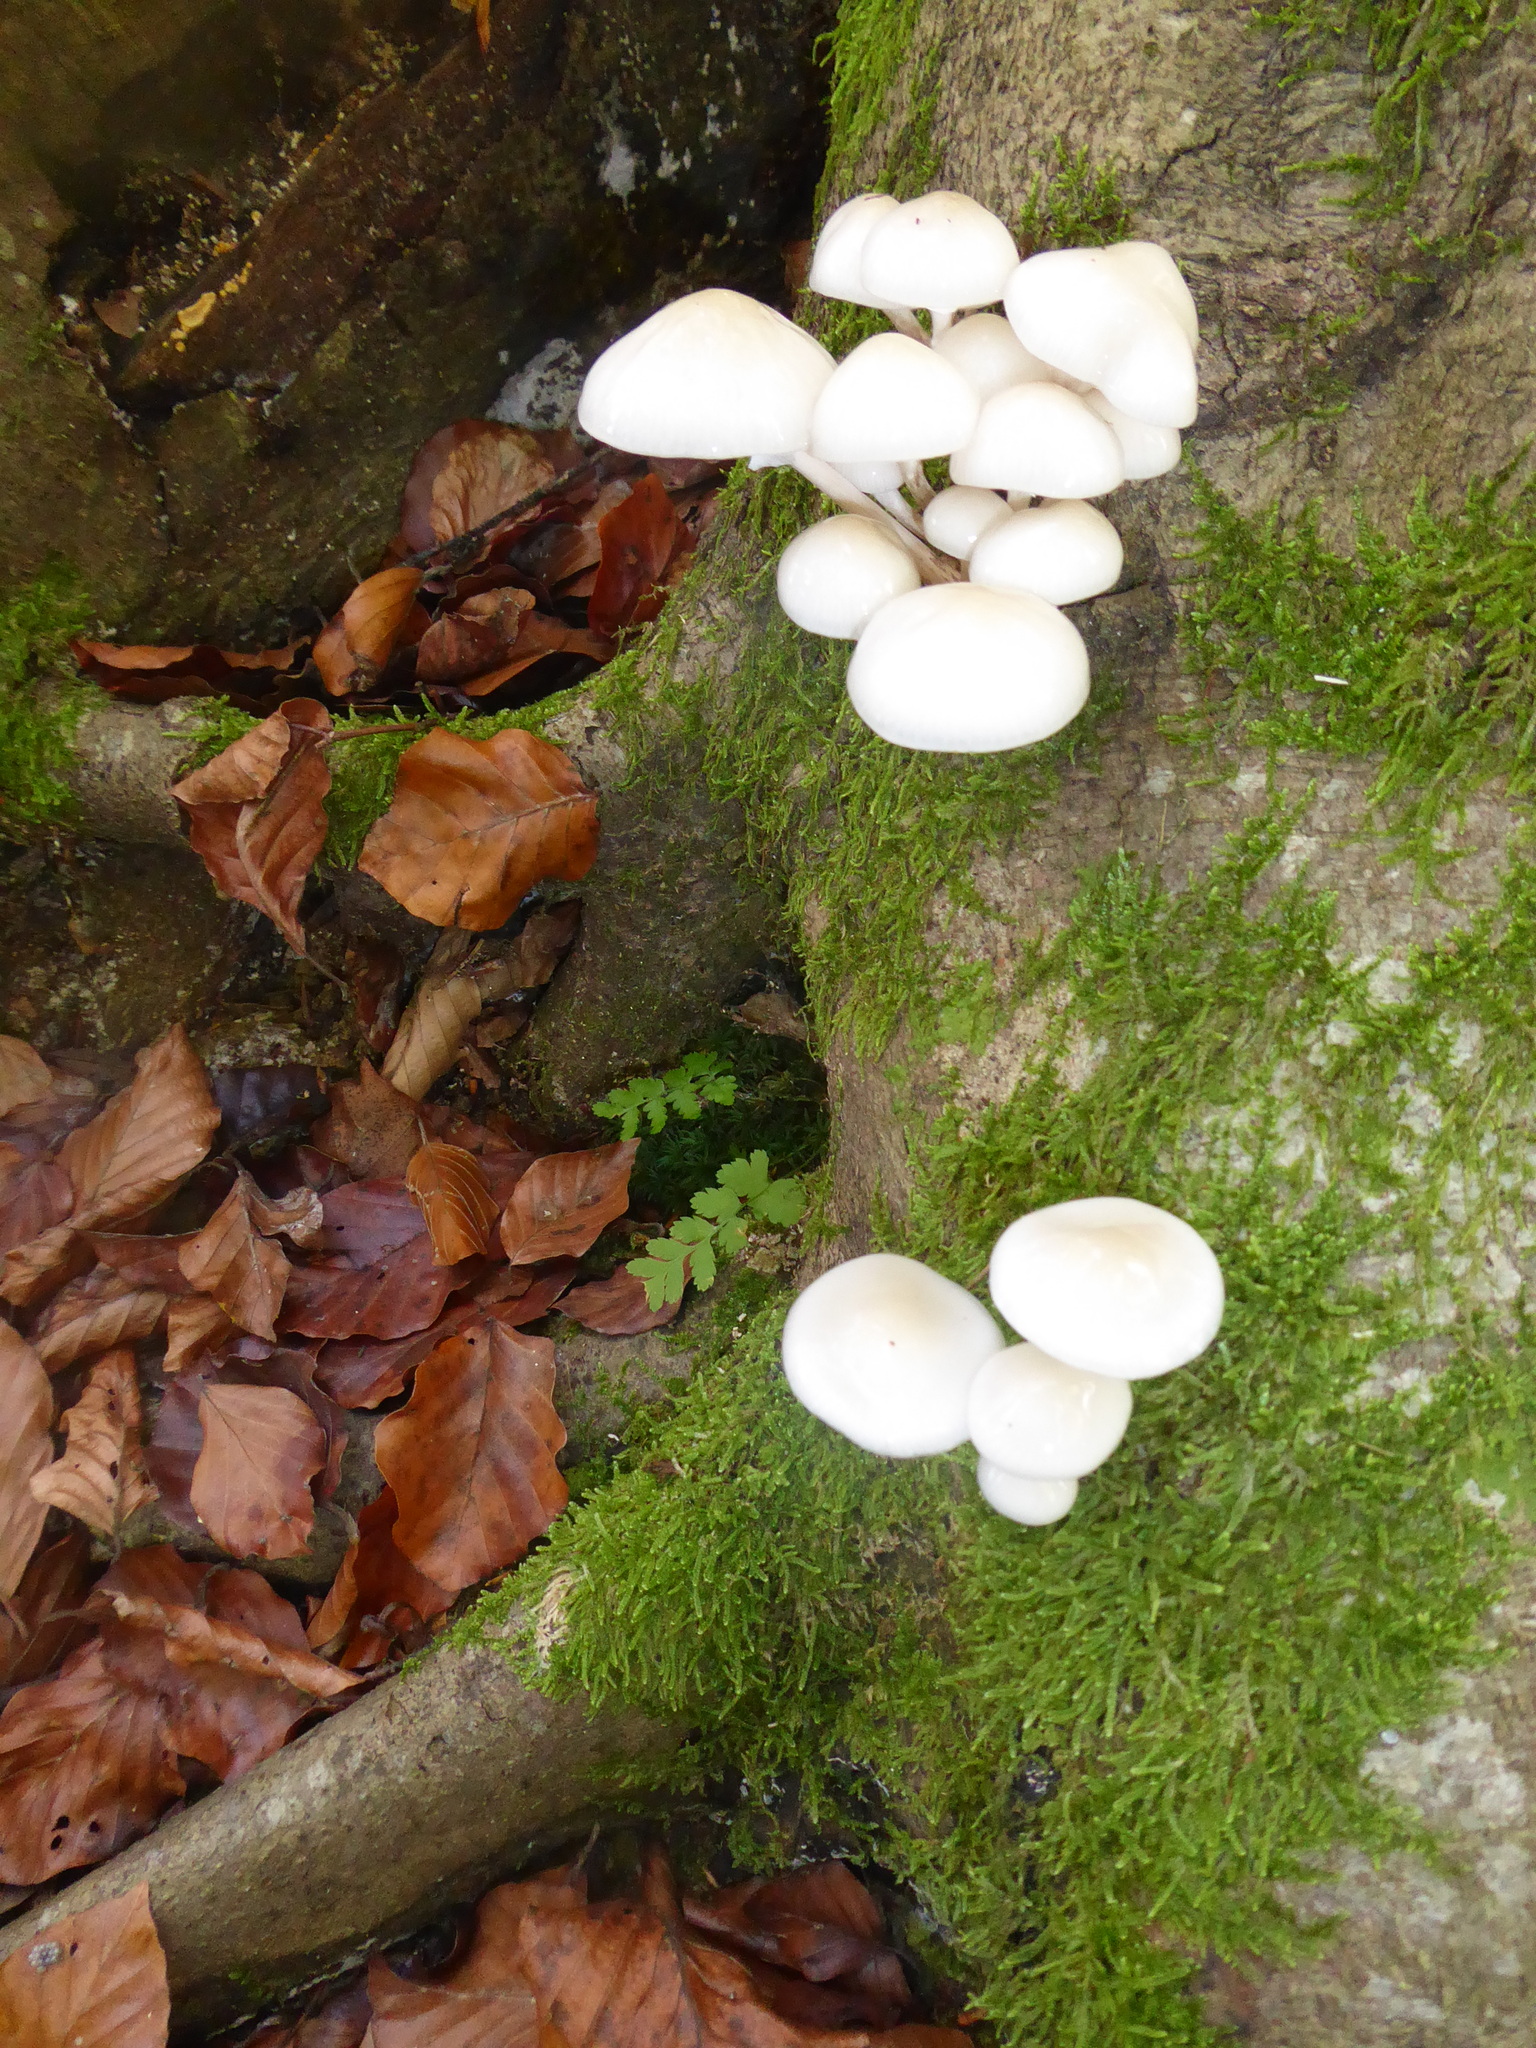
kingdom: Fungi
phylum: Basidiomycota
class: Agaricomycetes
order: Agaricales
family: Physalacriaceae
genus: Mucidula
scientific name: Mucidula mucida
